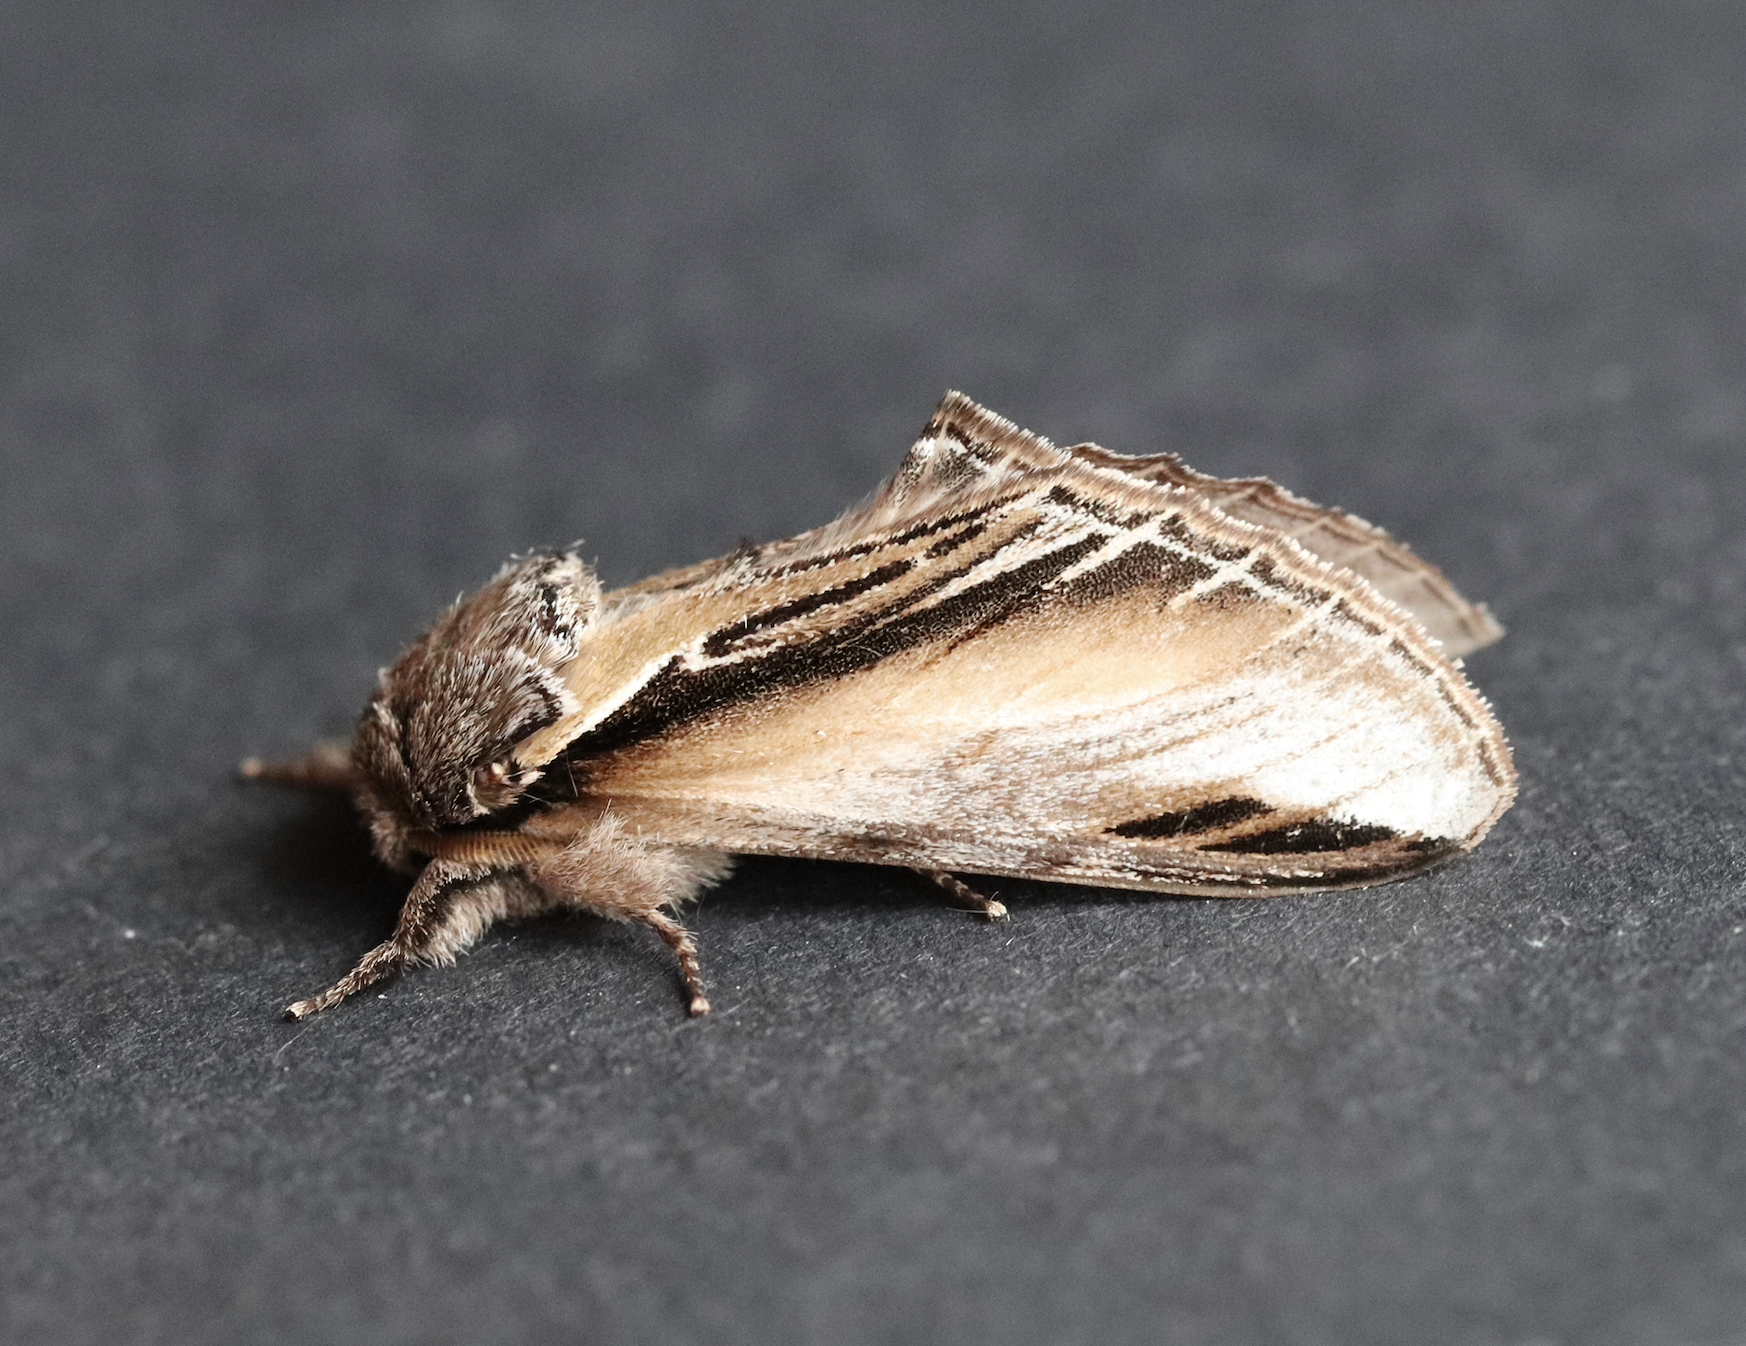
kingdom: Animalia
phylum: Arthropoda
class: Insecta
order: Lepidoptera
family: Notodontidae
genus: Pheosia
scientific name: Pheosia tremula
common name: Swallow prominent
